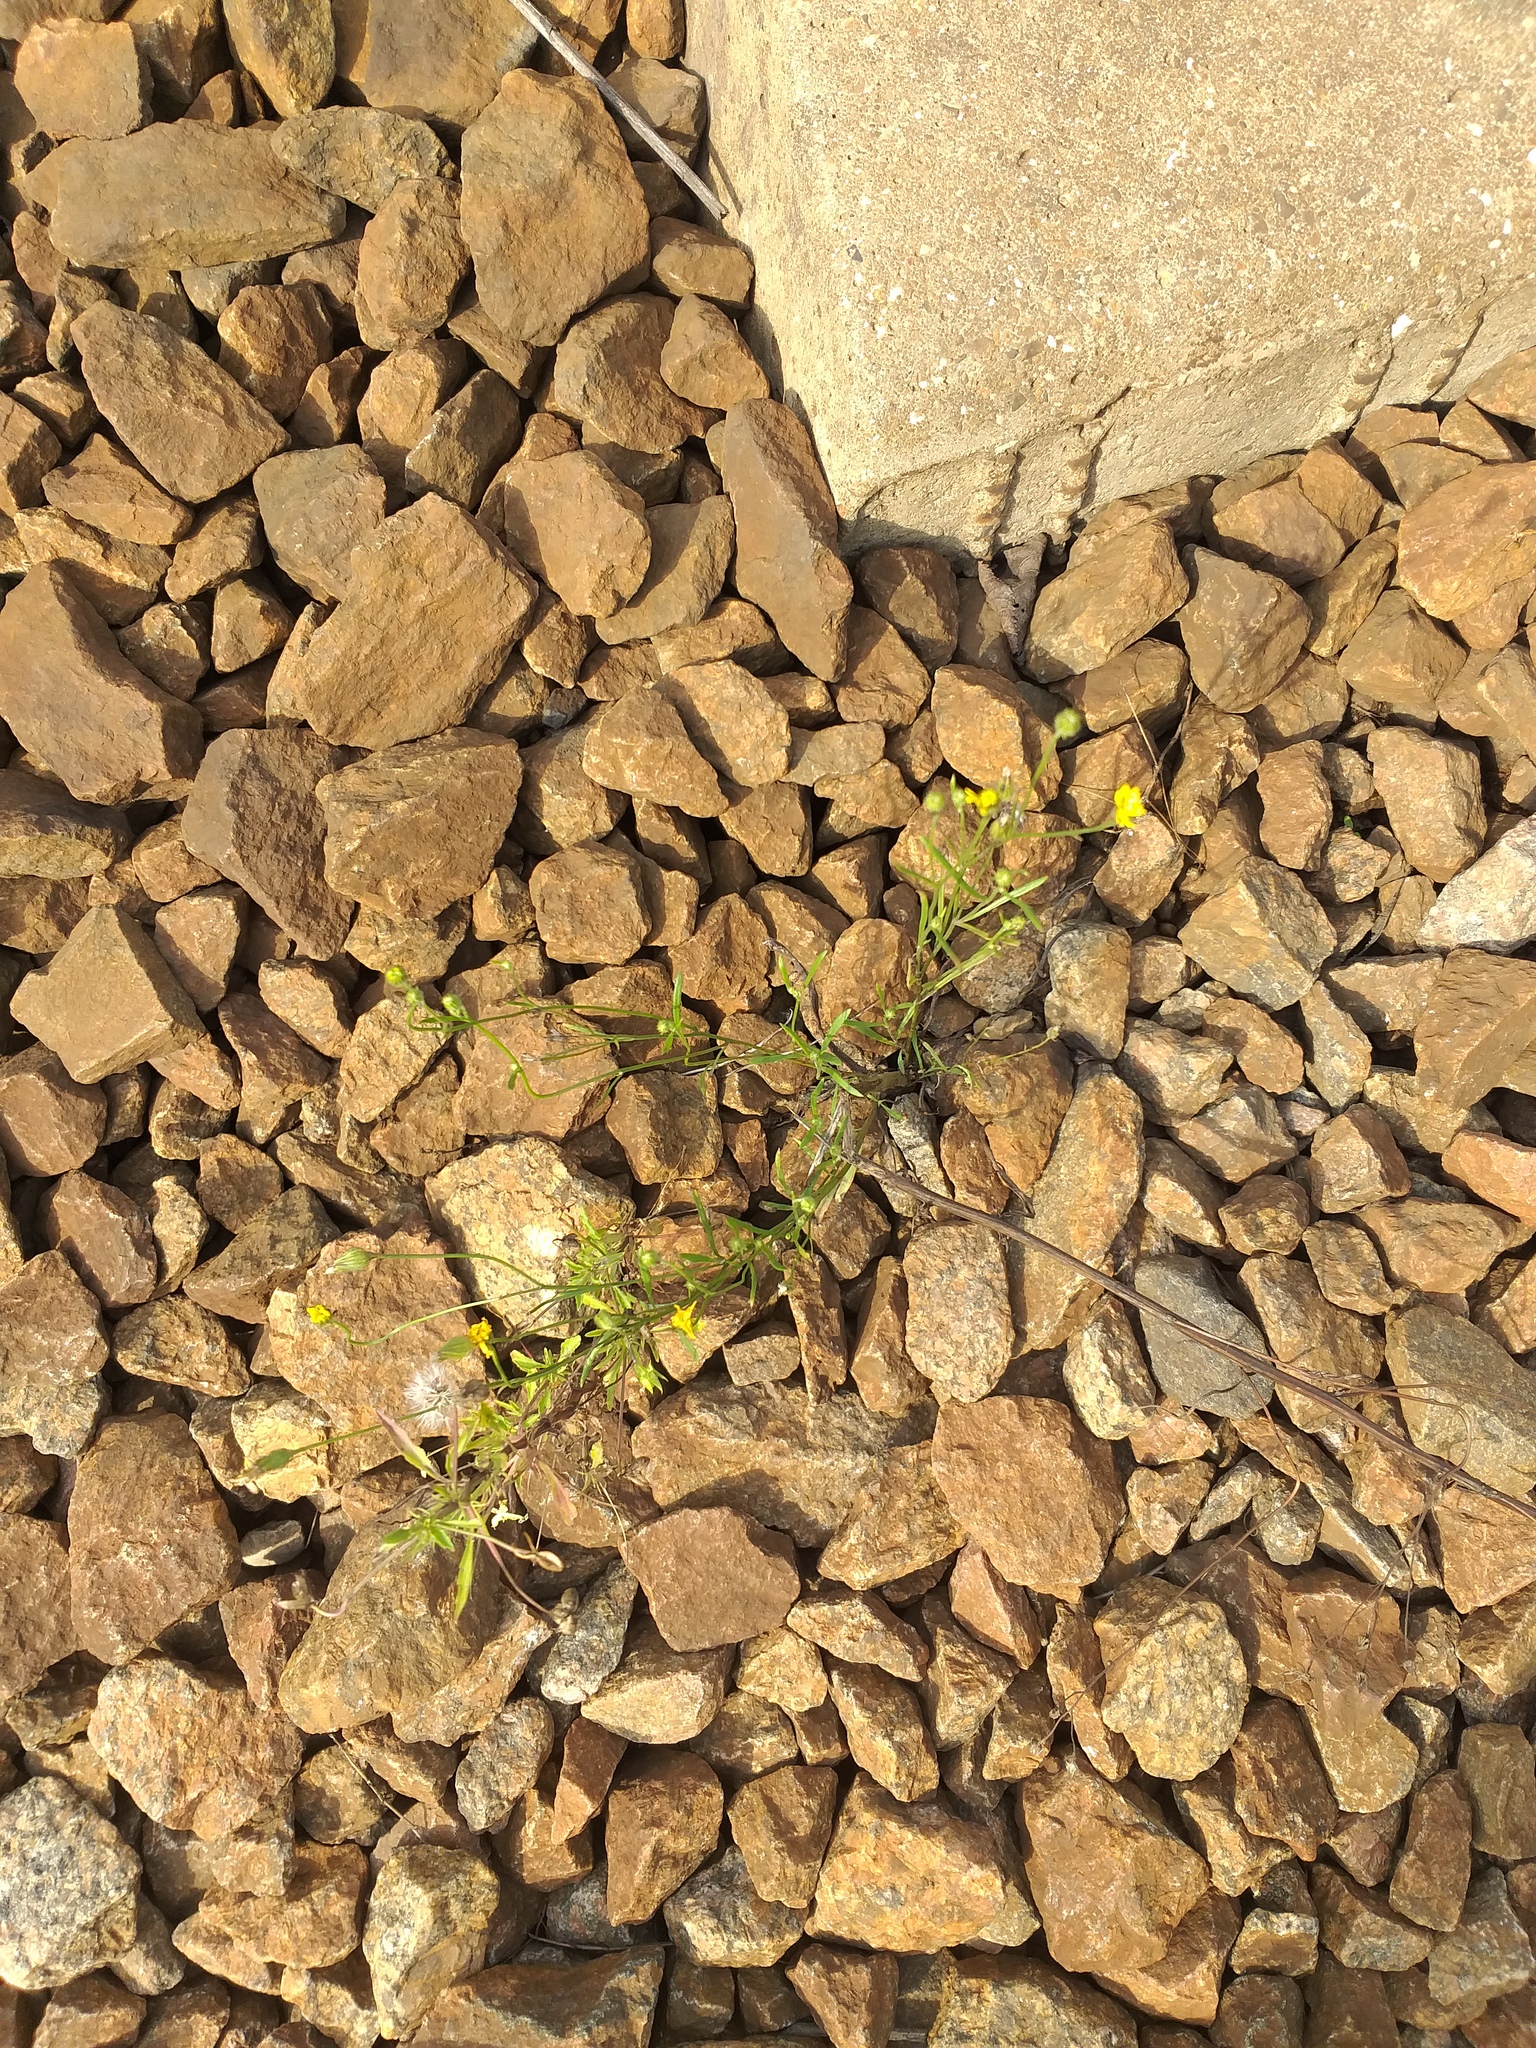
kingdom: Plantae
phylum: Tracheophyta
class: Magnoliopsida
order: Asterales
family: Asteraceae
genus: Crepis
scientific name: Crepis tectorum
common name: Narrow-leaved hawk's-beard
